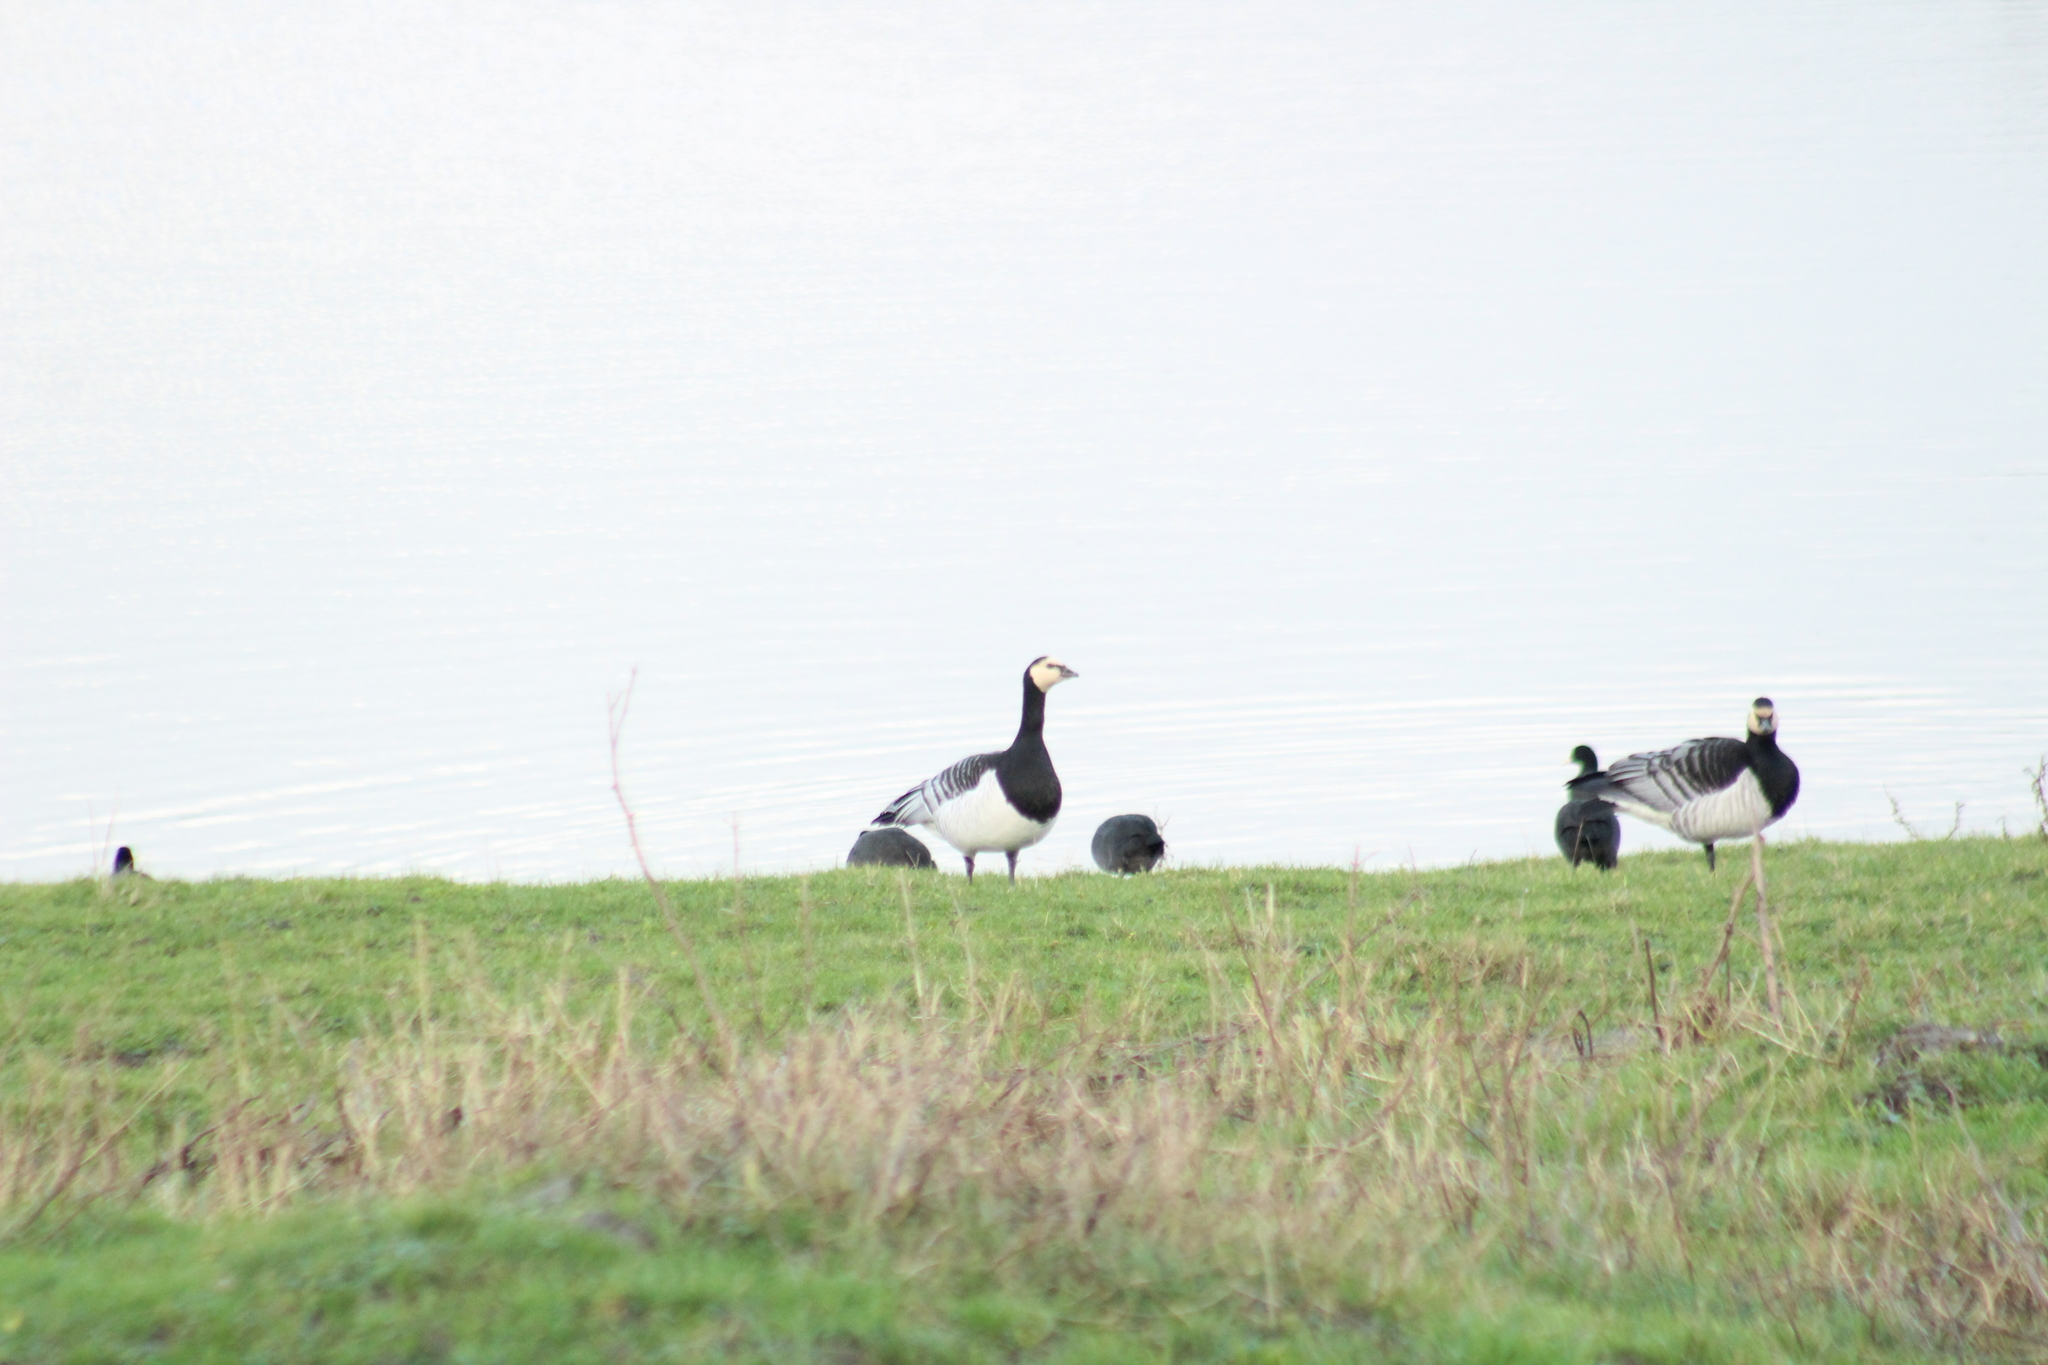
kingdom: Animalia
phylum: Chordata
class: Aves
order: Anseriformes
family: Anatidae
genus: Branta
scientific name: Branta leucopsis
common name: Barnacle goose
